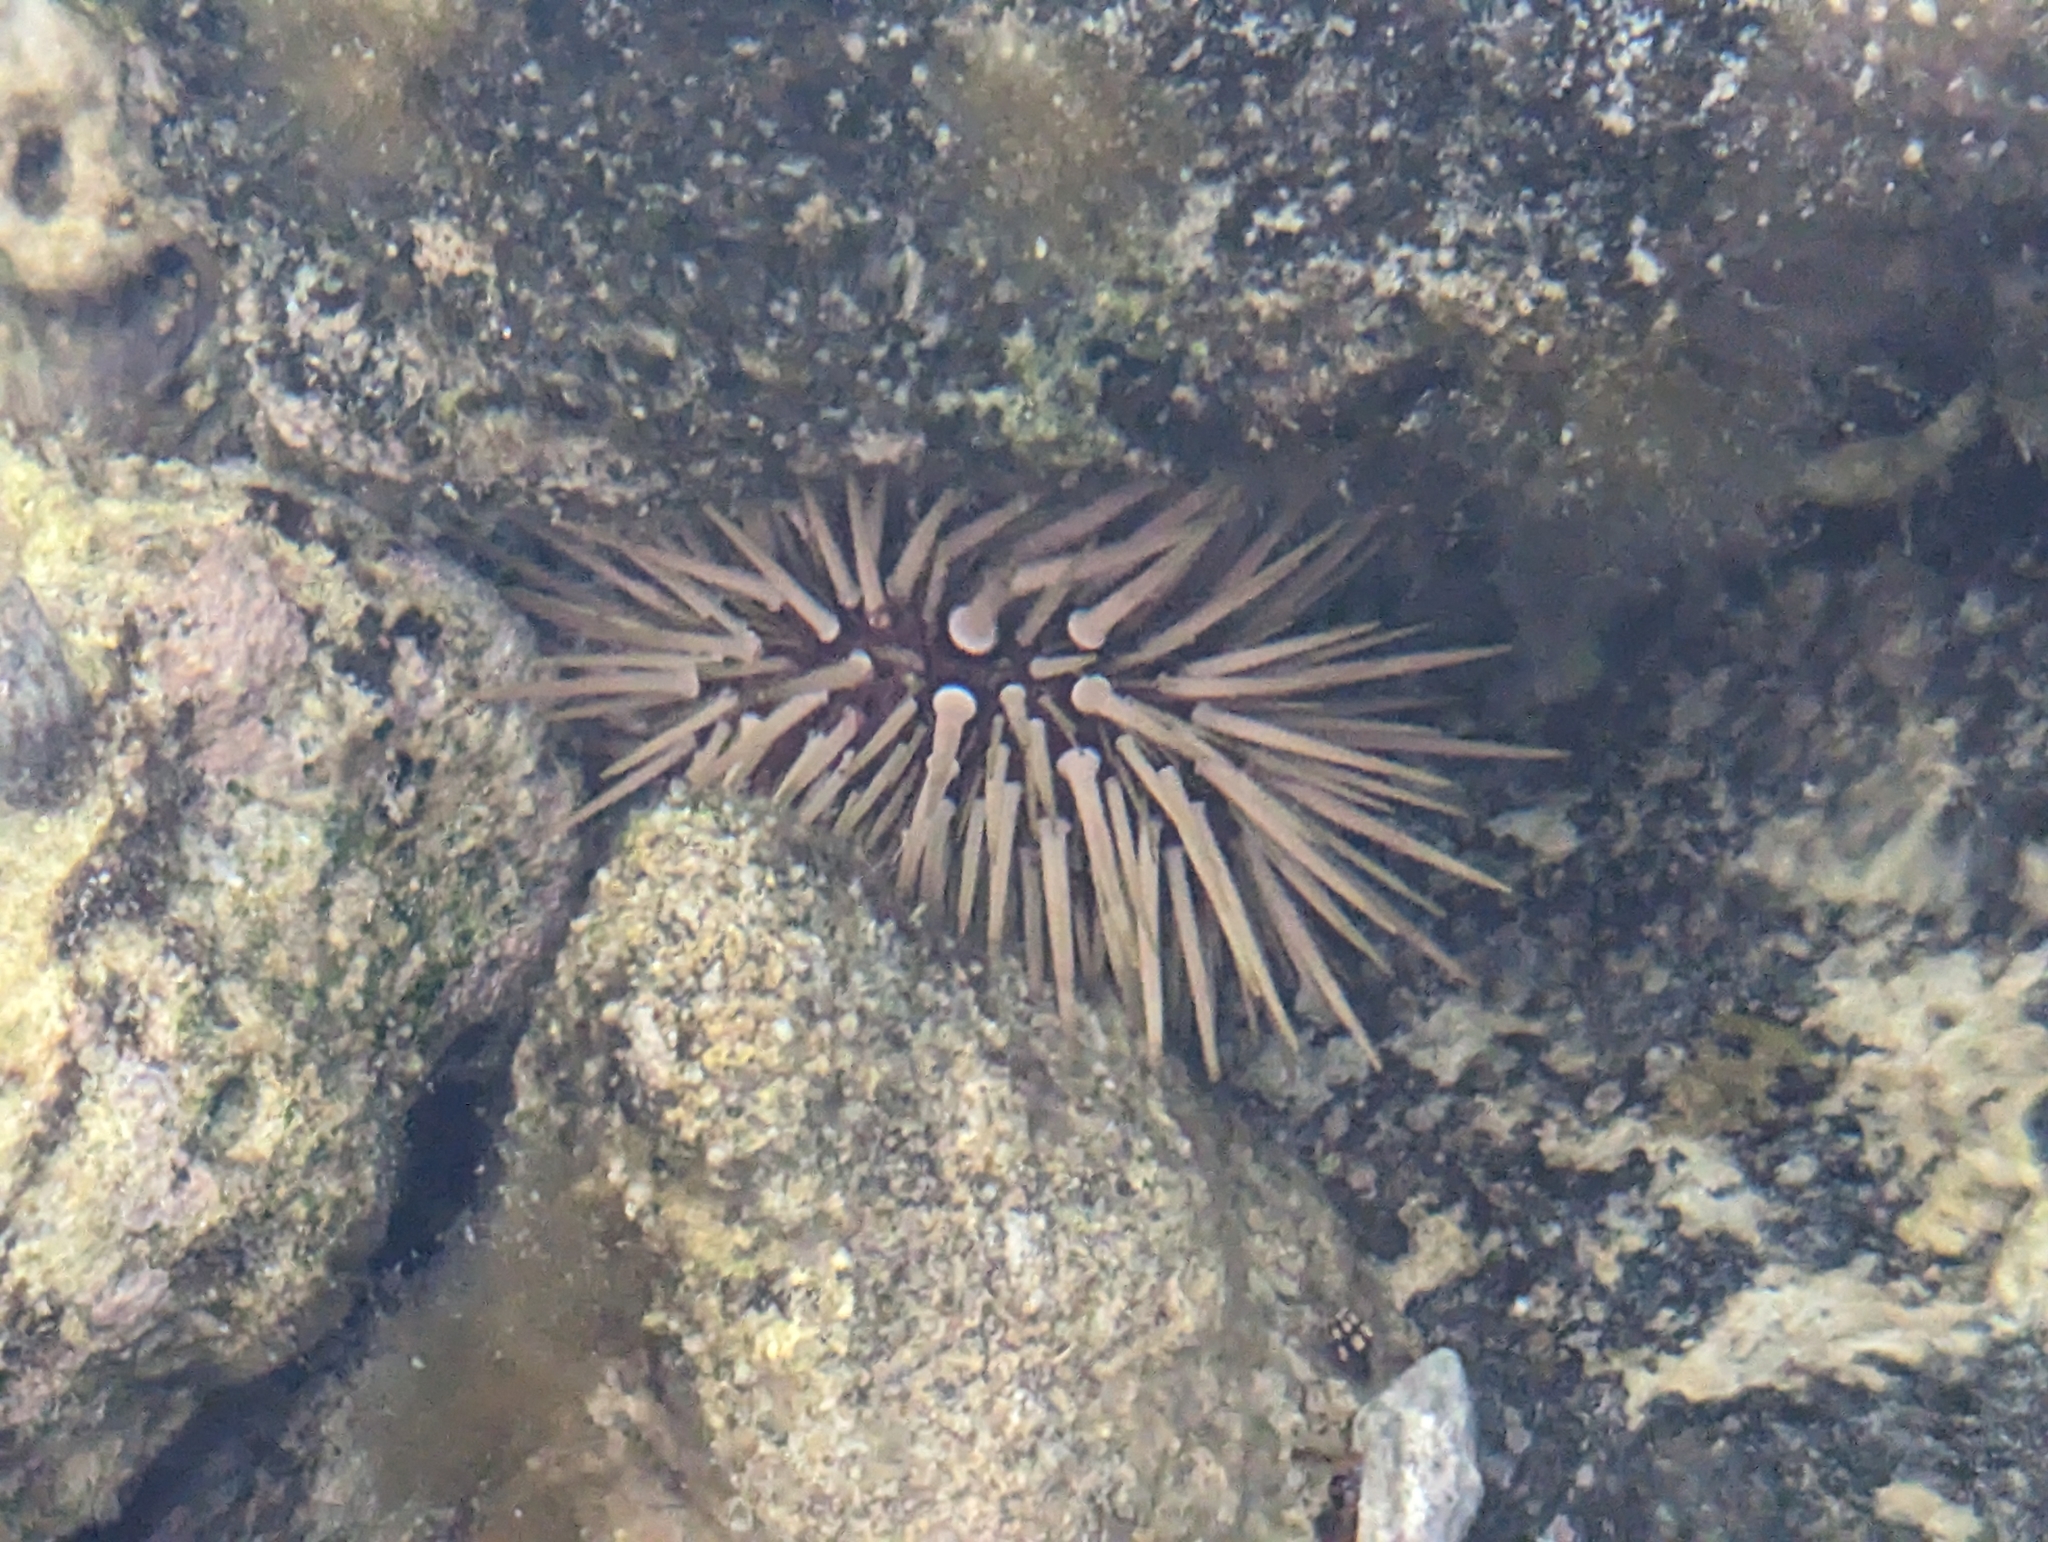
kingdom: Animalia
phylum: Echinodermata
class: Echinoidea
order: Camarodonta
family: Echinometridae
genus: Echinometra
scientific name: Echinometra mathaei
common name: Rock-boring urchin
